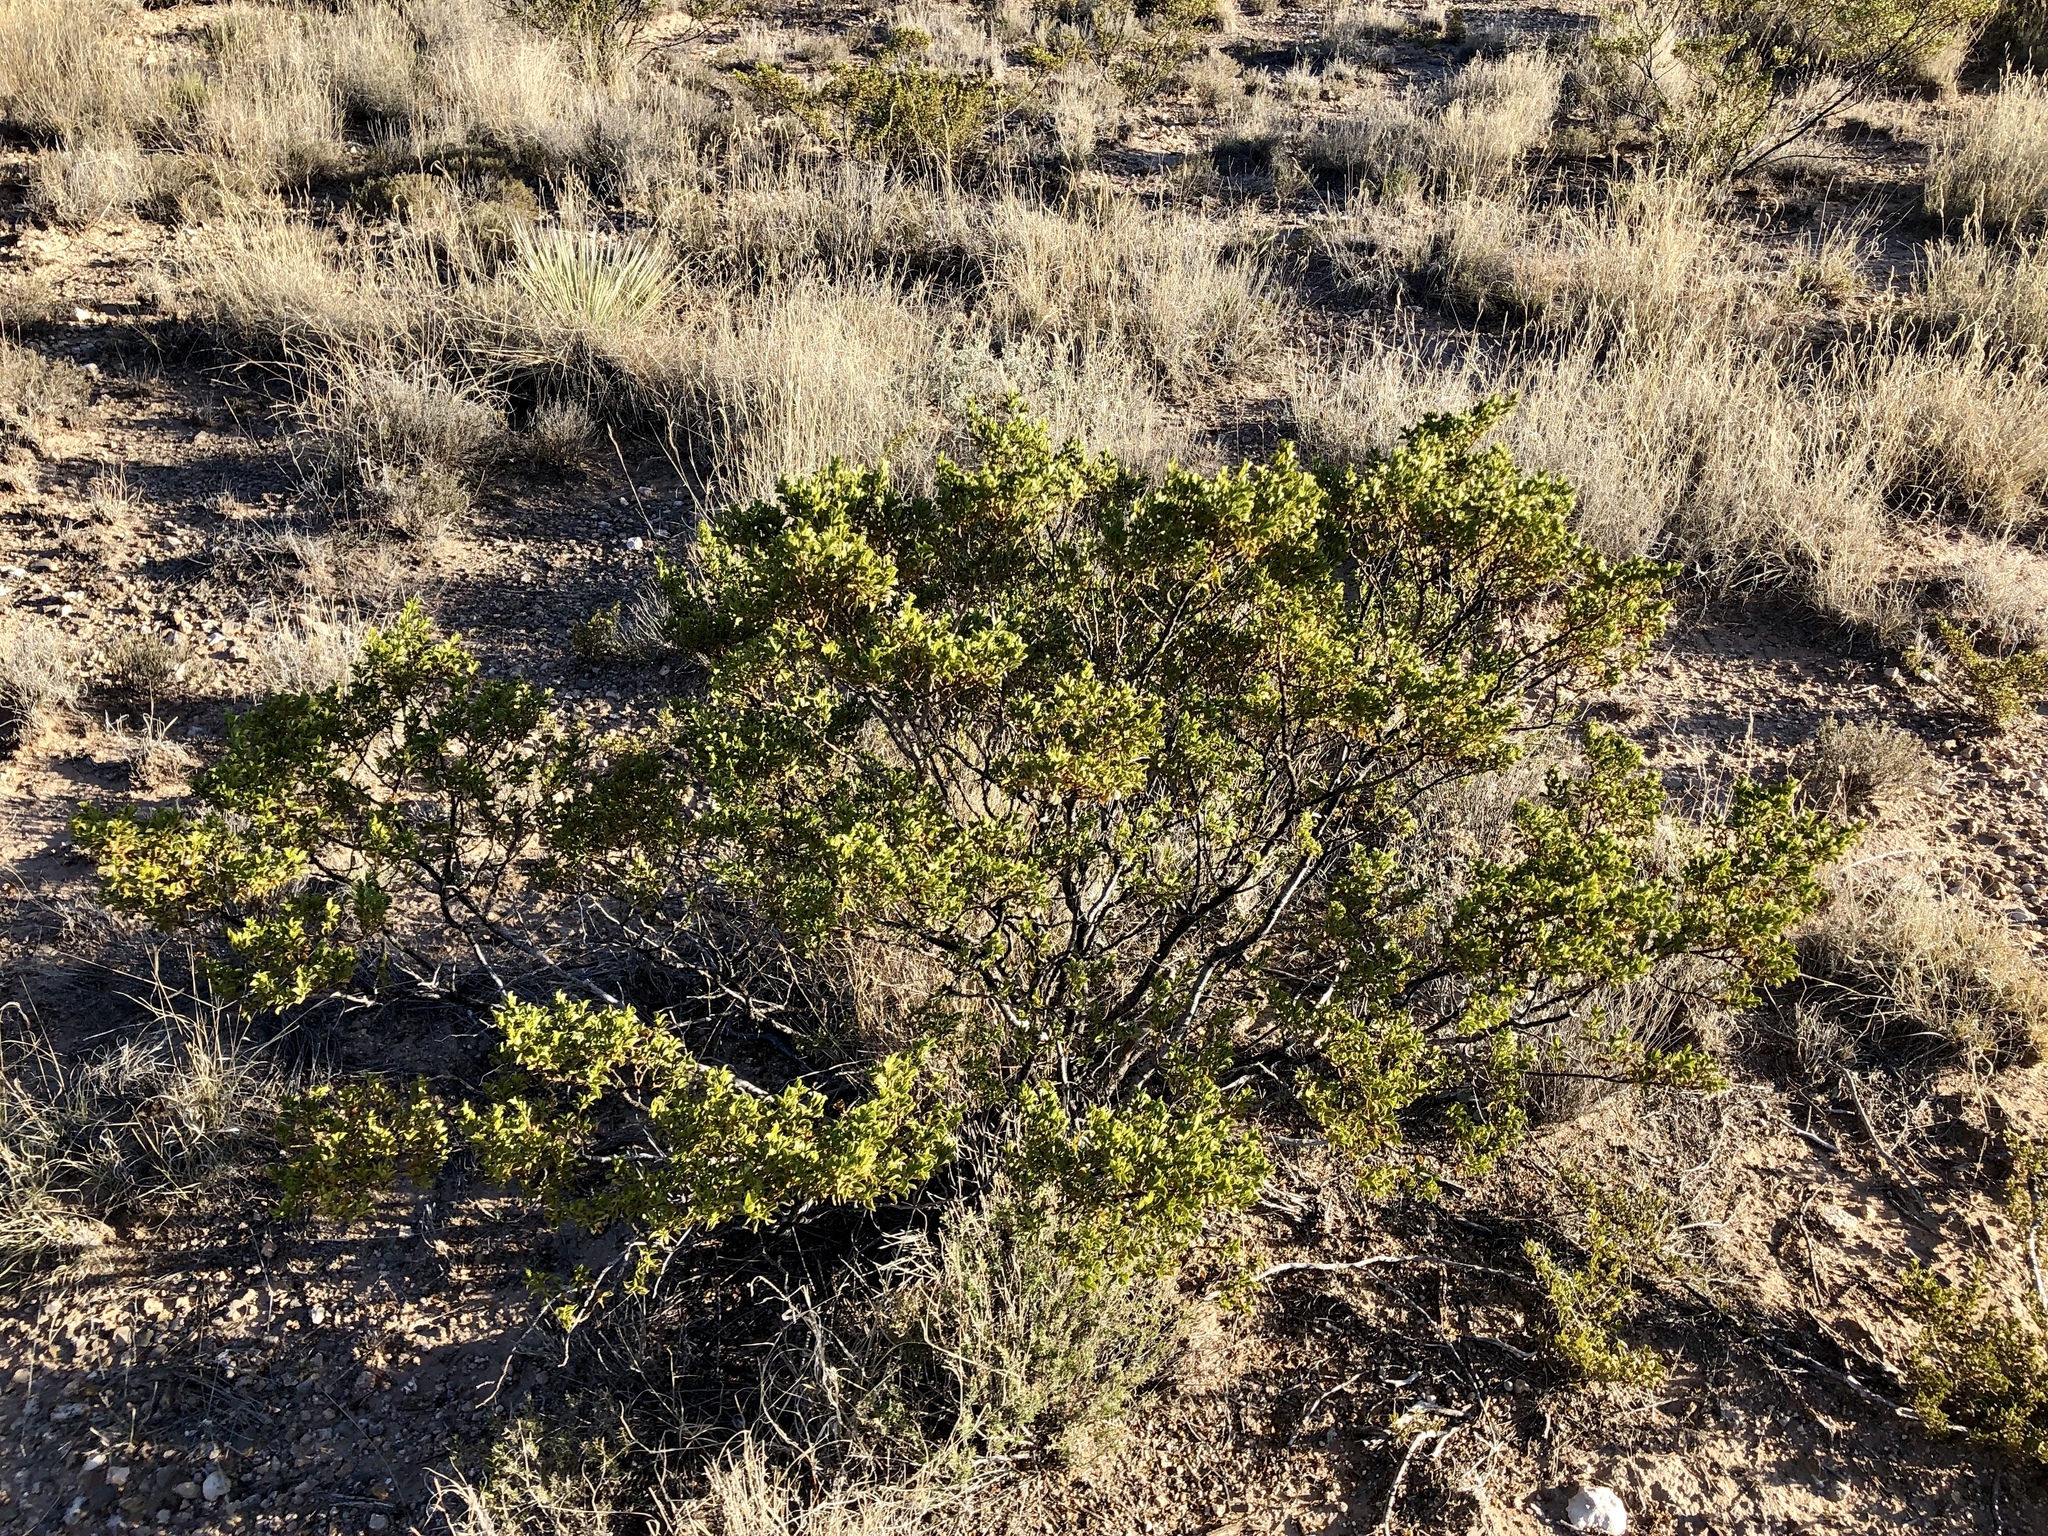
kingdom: Plantae
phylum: Tracheophyta
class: Magnoliopsida
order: Zygophyllales
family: Zygophyllaceae
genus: Larrea
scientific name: Larrea tridentata
